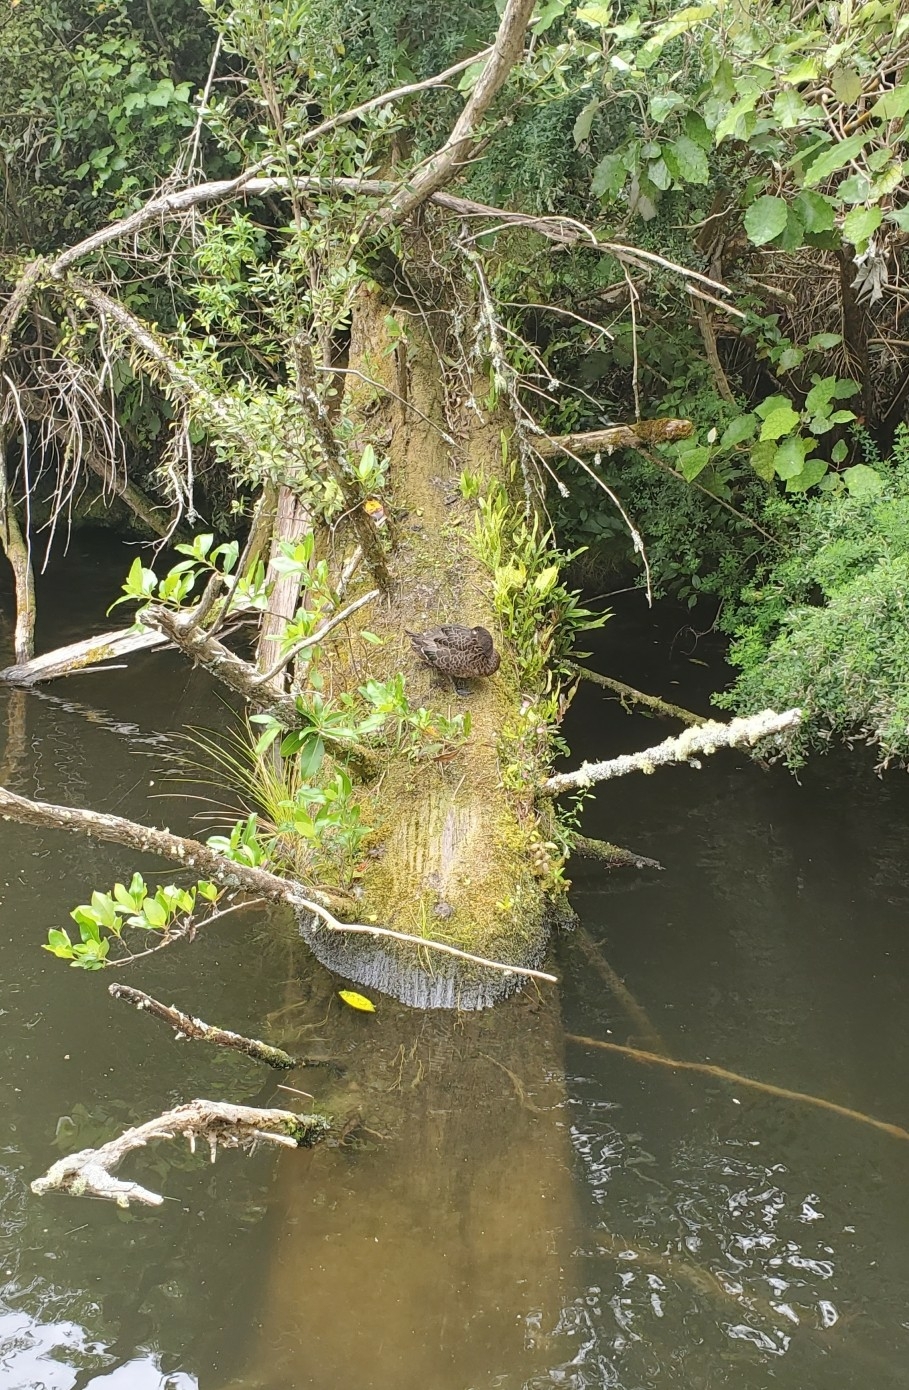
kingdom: Animalia
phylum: Chordata
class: Aves
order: Anseriformes
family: Anatidae
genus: Anas
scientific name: Anas chlorotis
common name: Brown teal
